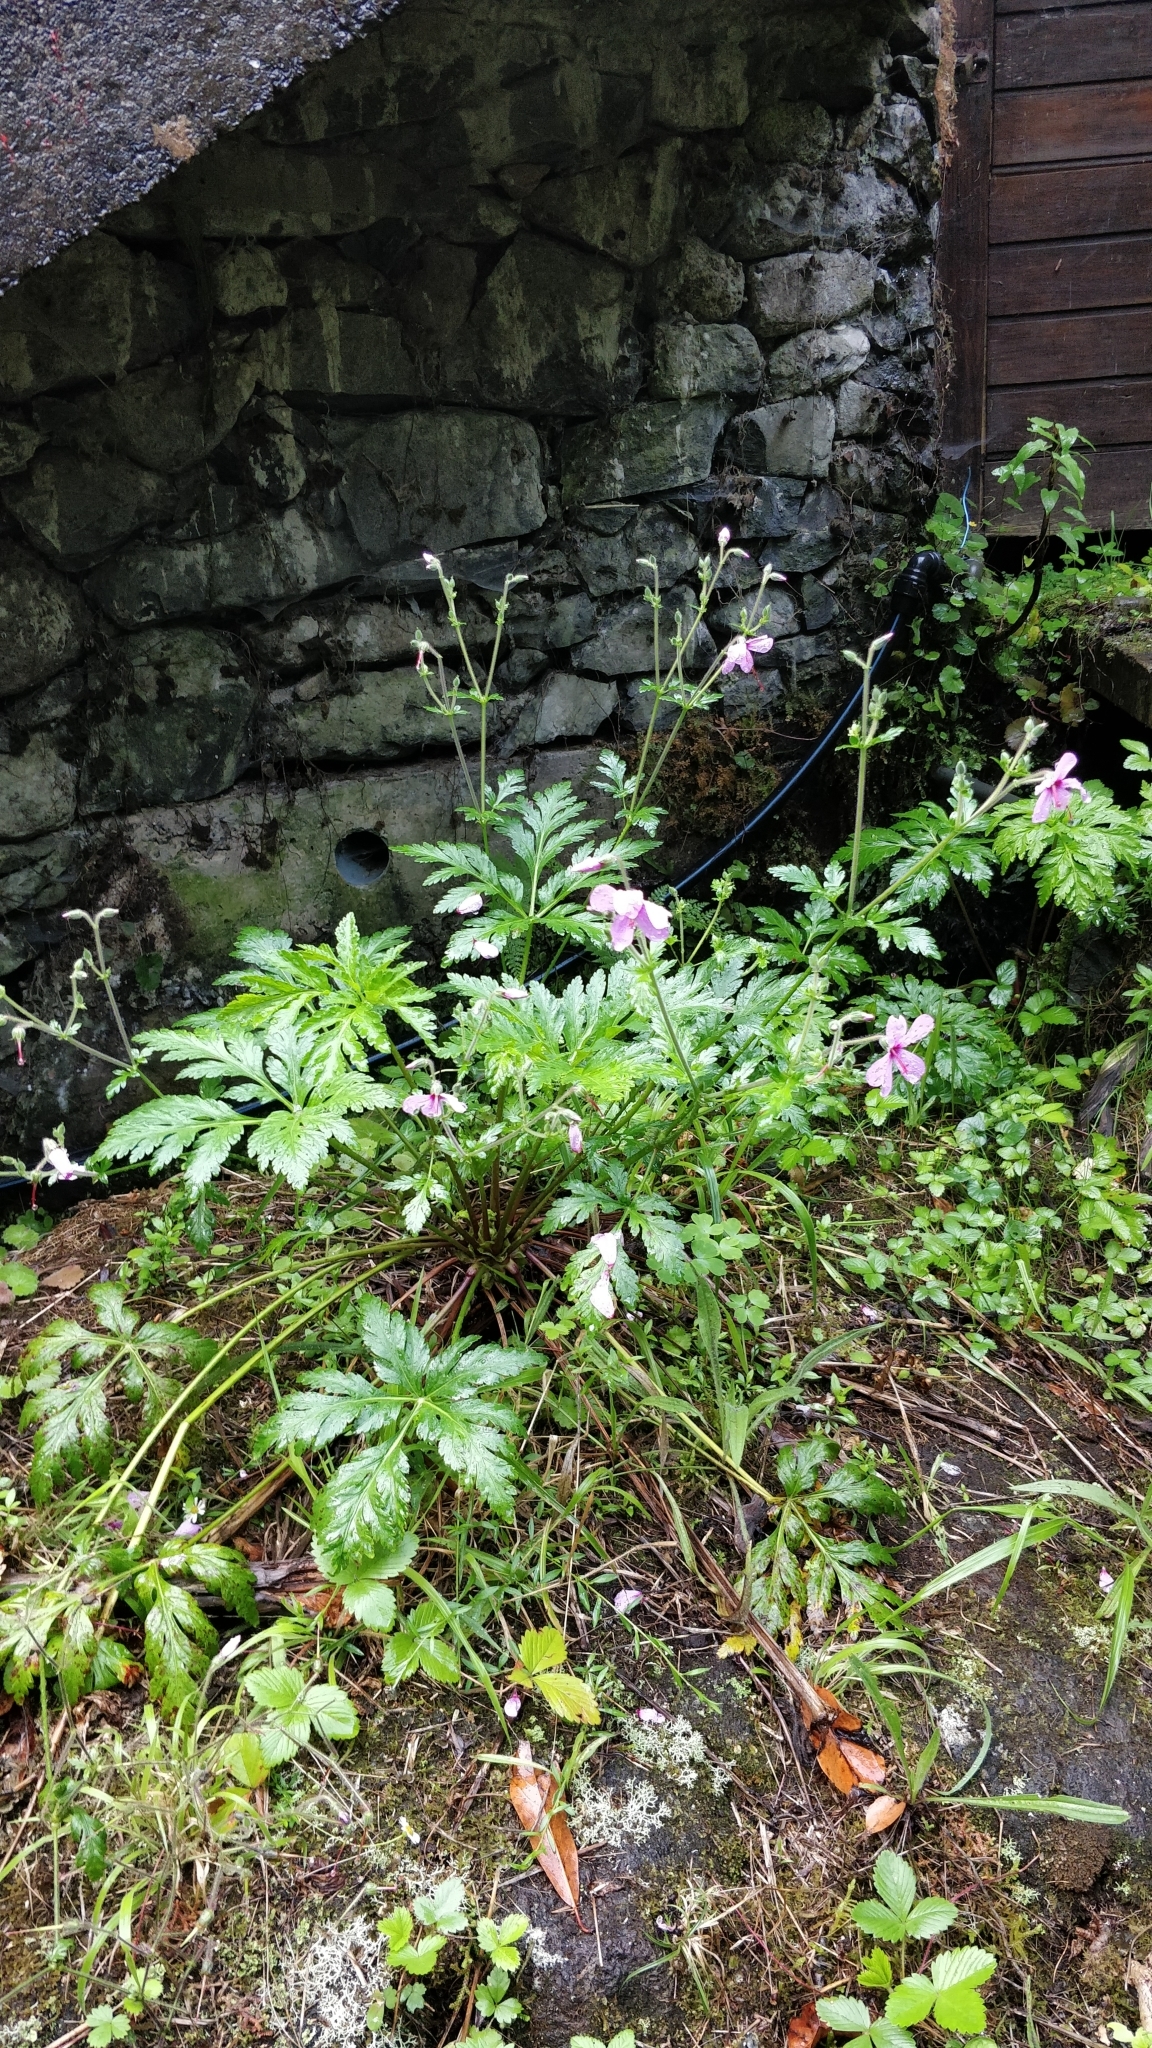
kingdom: Plantae
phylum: Tracheophyta
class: Magnoliopsida
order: Geraniales
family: Geraniaceae
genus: Geranium
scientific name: Geranium palmatum
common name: Canary island geranium
